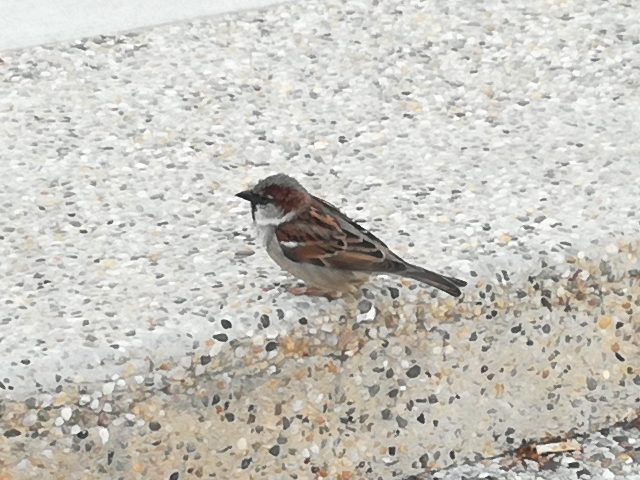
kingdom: Animalia
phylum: Chordata
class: Aves
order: Passeriformes
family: Passeridae
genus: Passer
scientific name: Passer domesticus
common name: House sparrow
